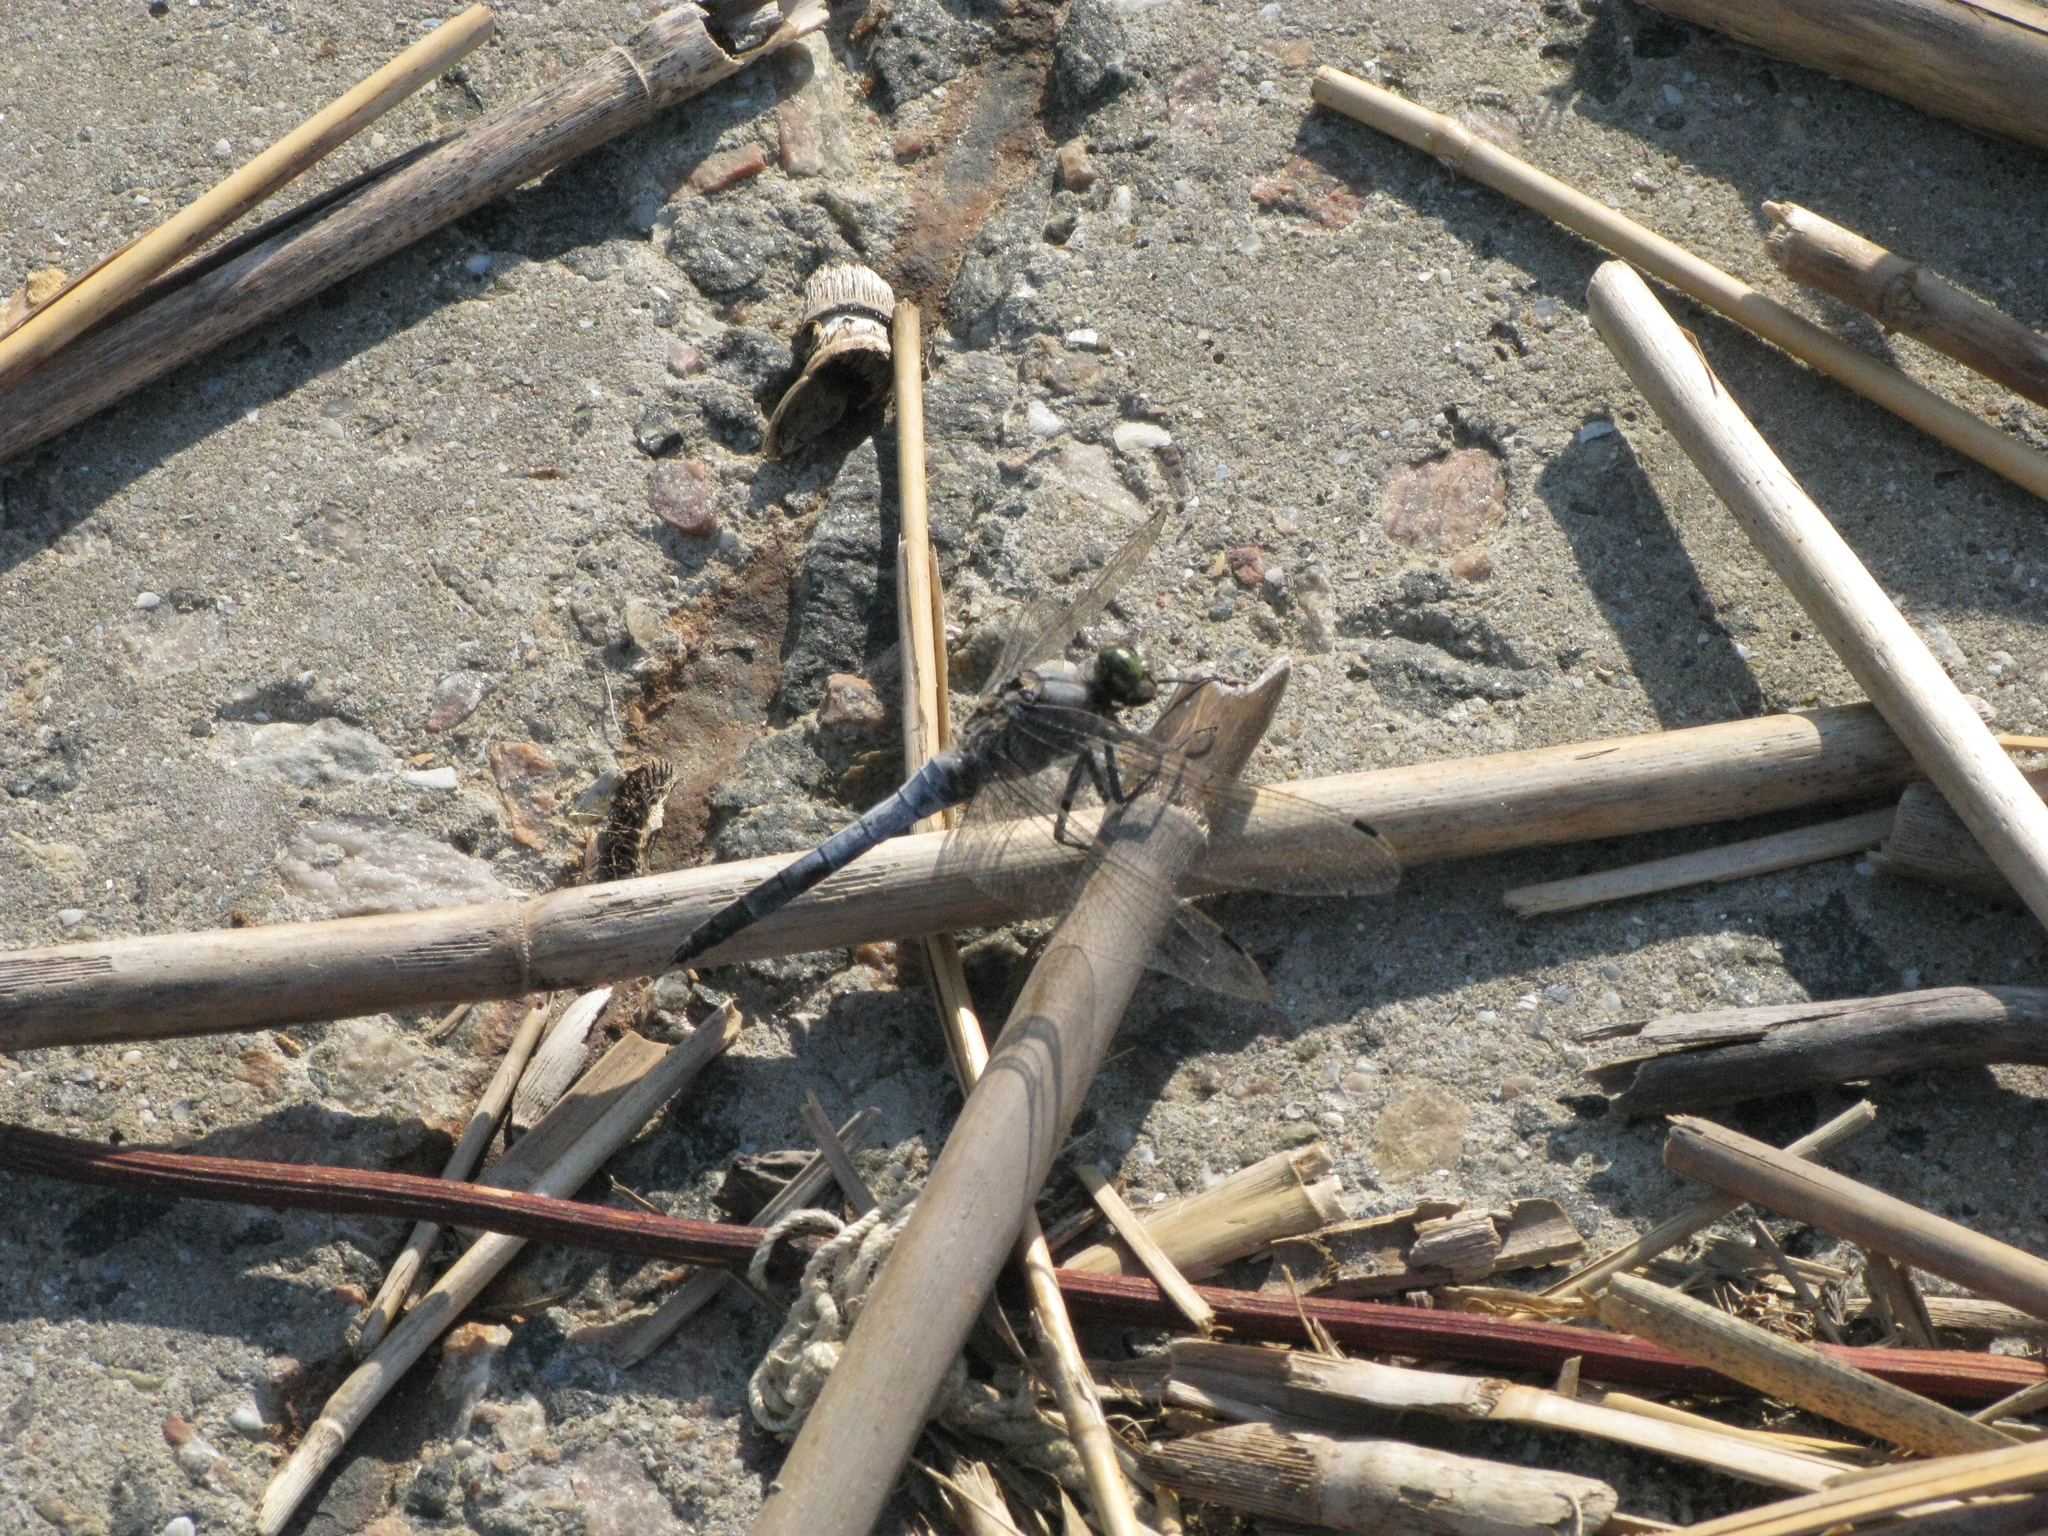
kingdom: Animalia
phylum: Arthropoda
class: Insecta
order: Odonata
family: Libellulidae
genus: Orthetrum
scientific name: Orthetrum cancellatum
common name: Black-tailed skimmer
